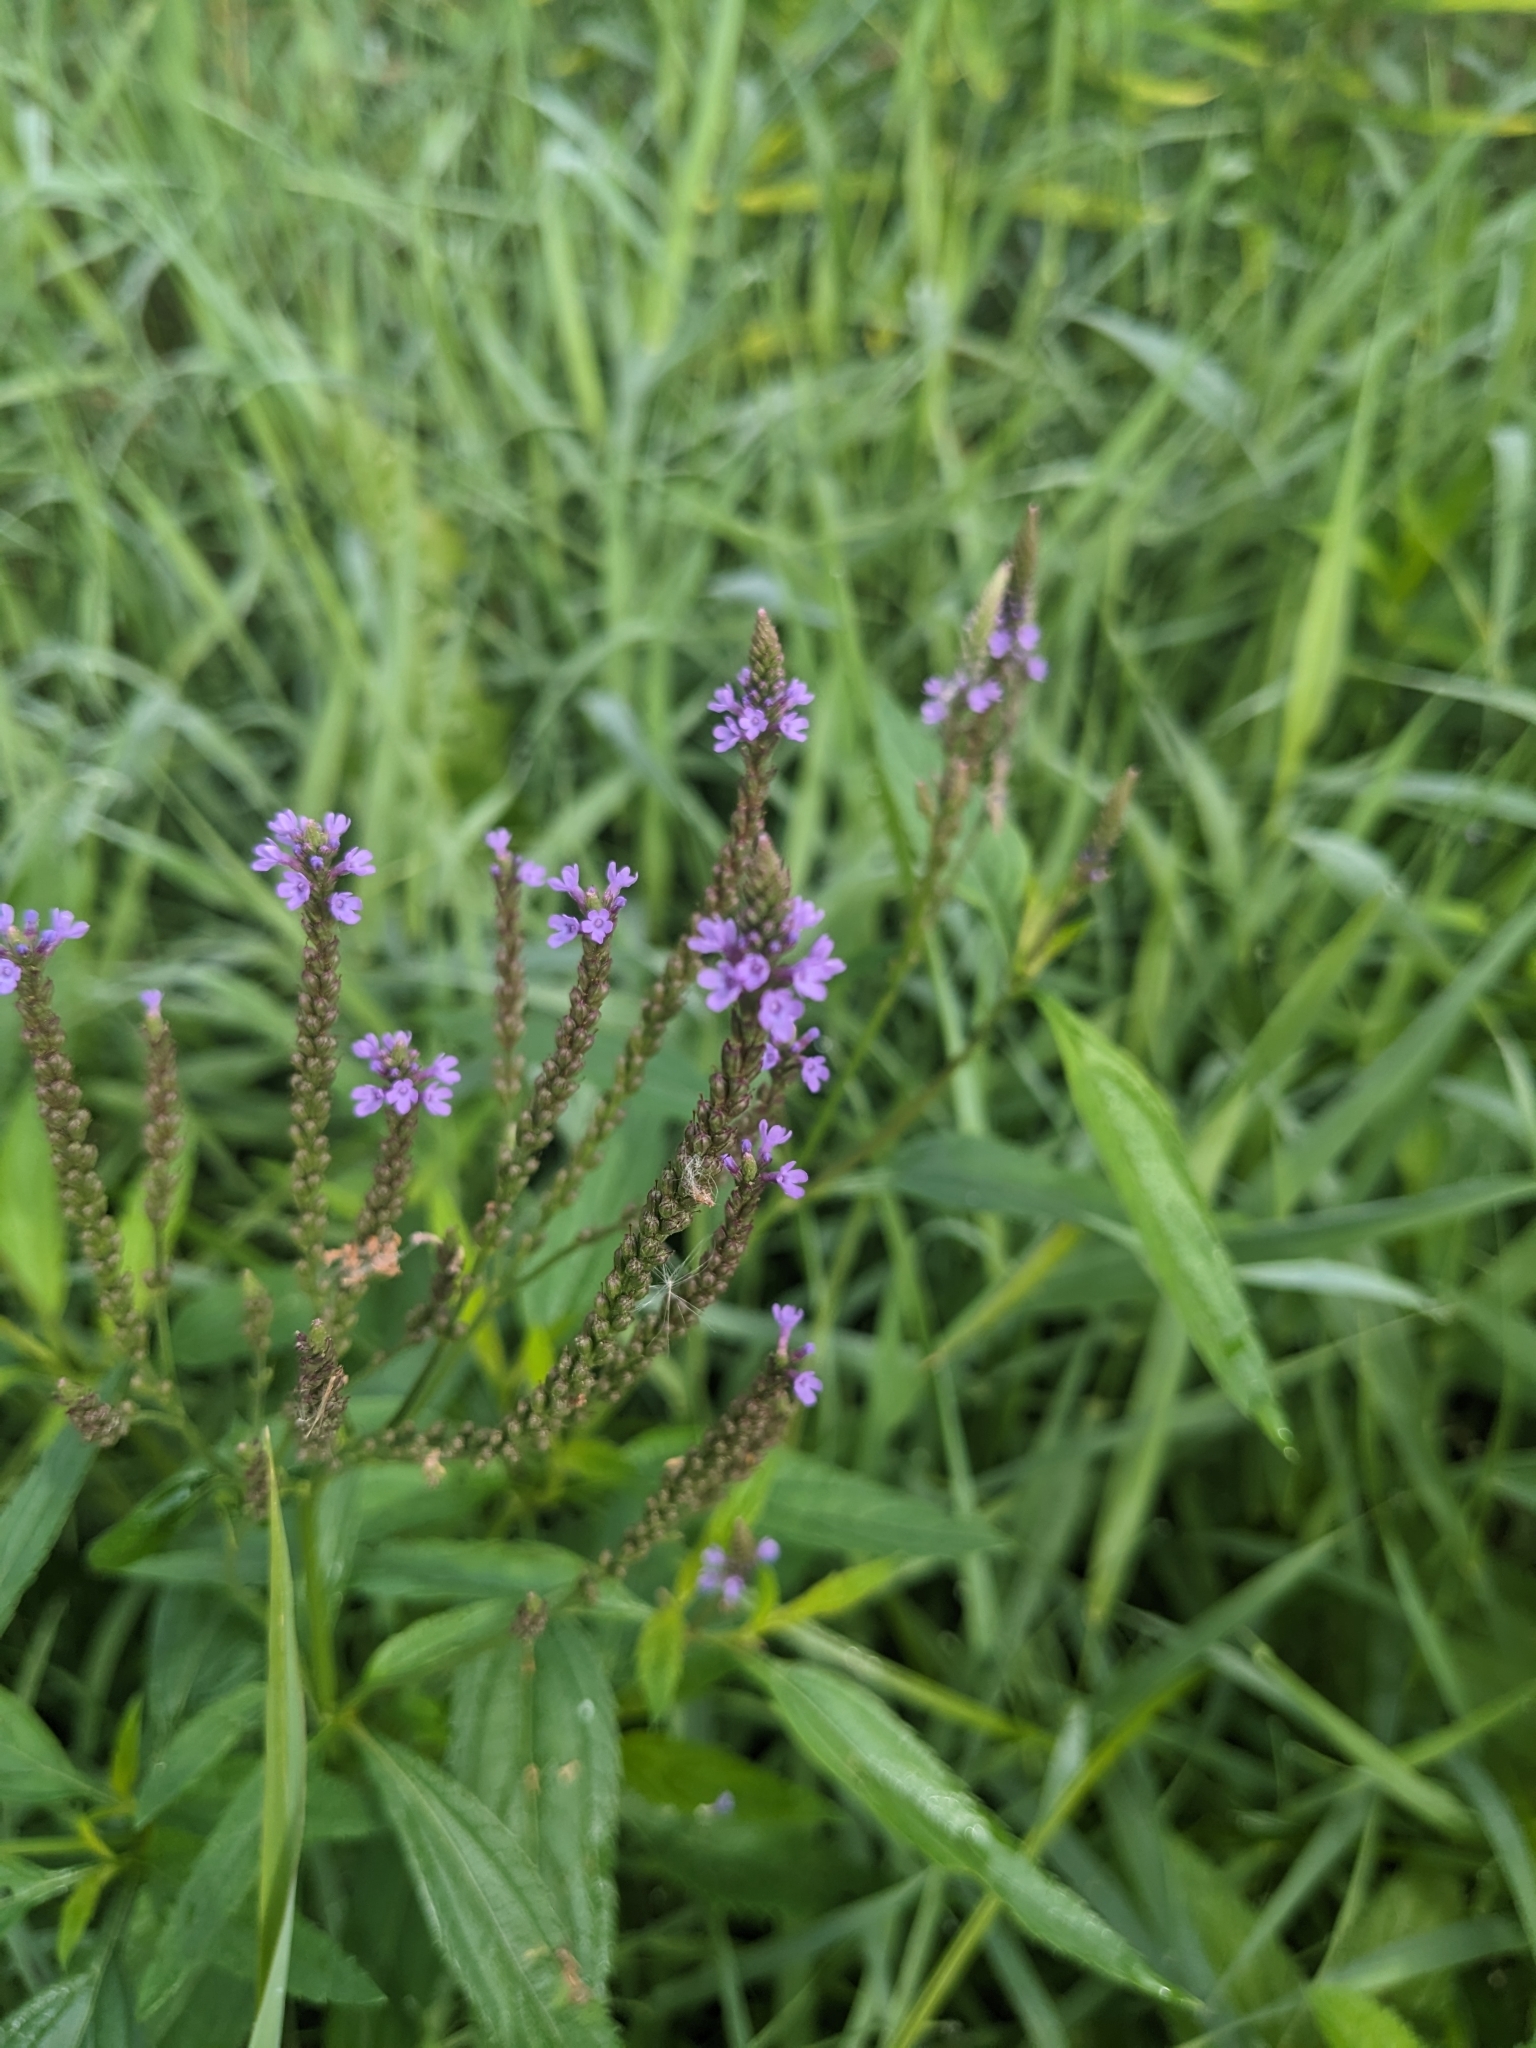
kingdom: Plantae
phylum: Tracheophyta
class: Magnoliopsida
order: Lamiales
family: Verbenaceae
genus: Verbena
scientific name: Verbena hastata
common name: American blue vervain
